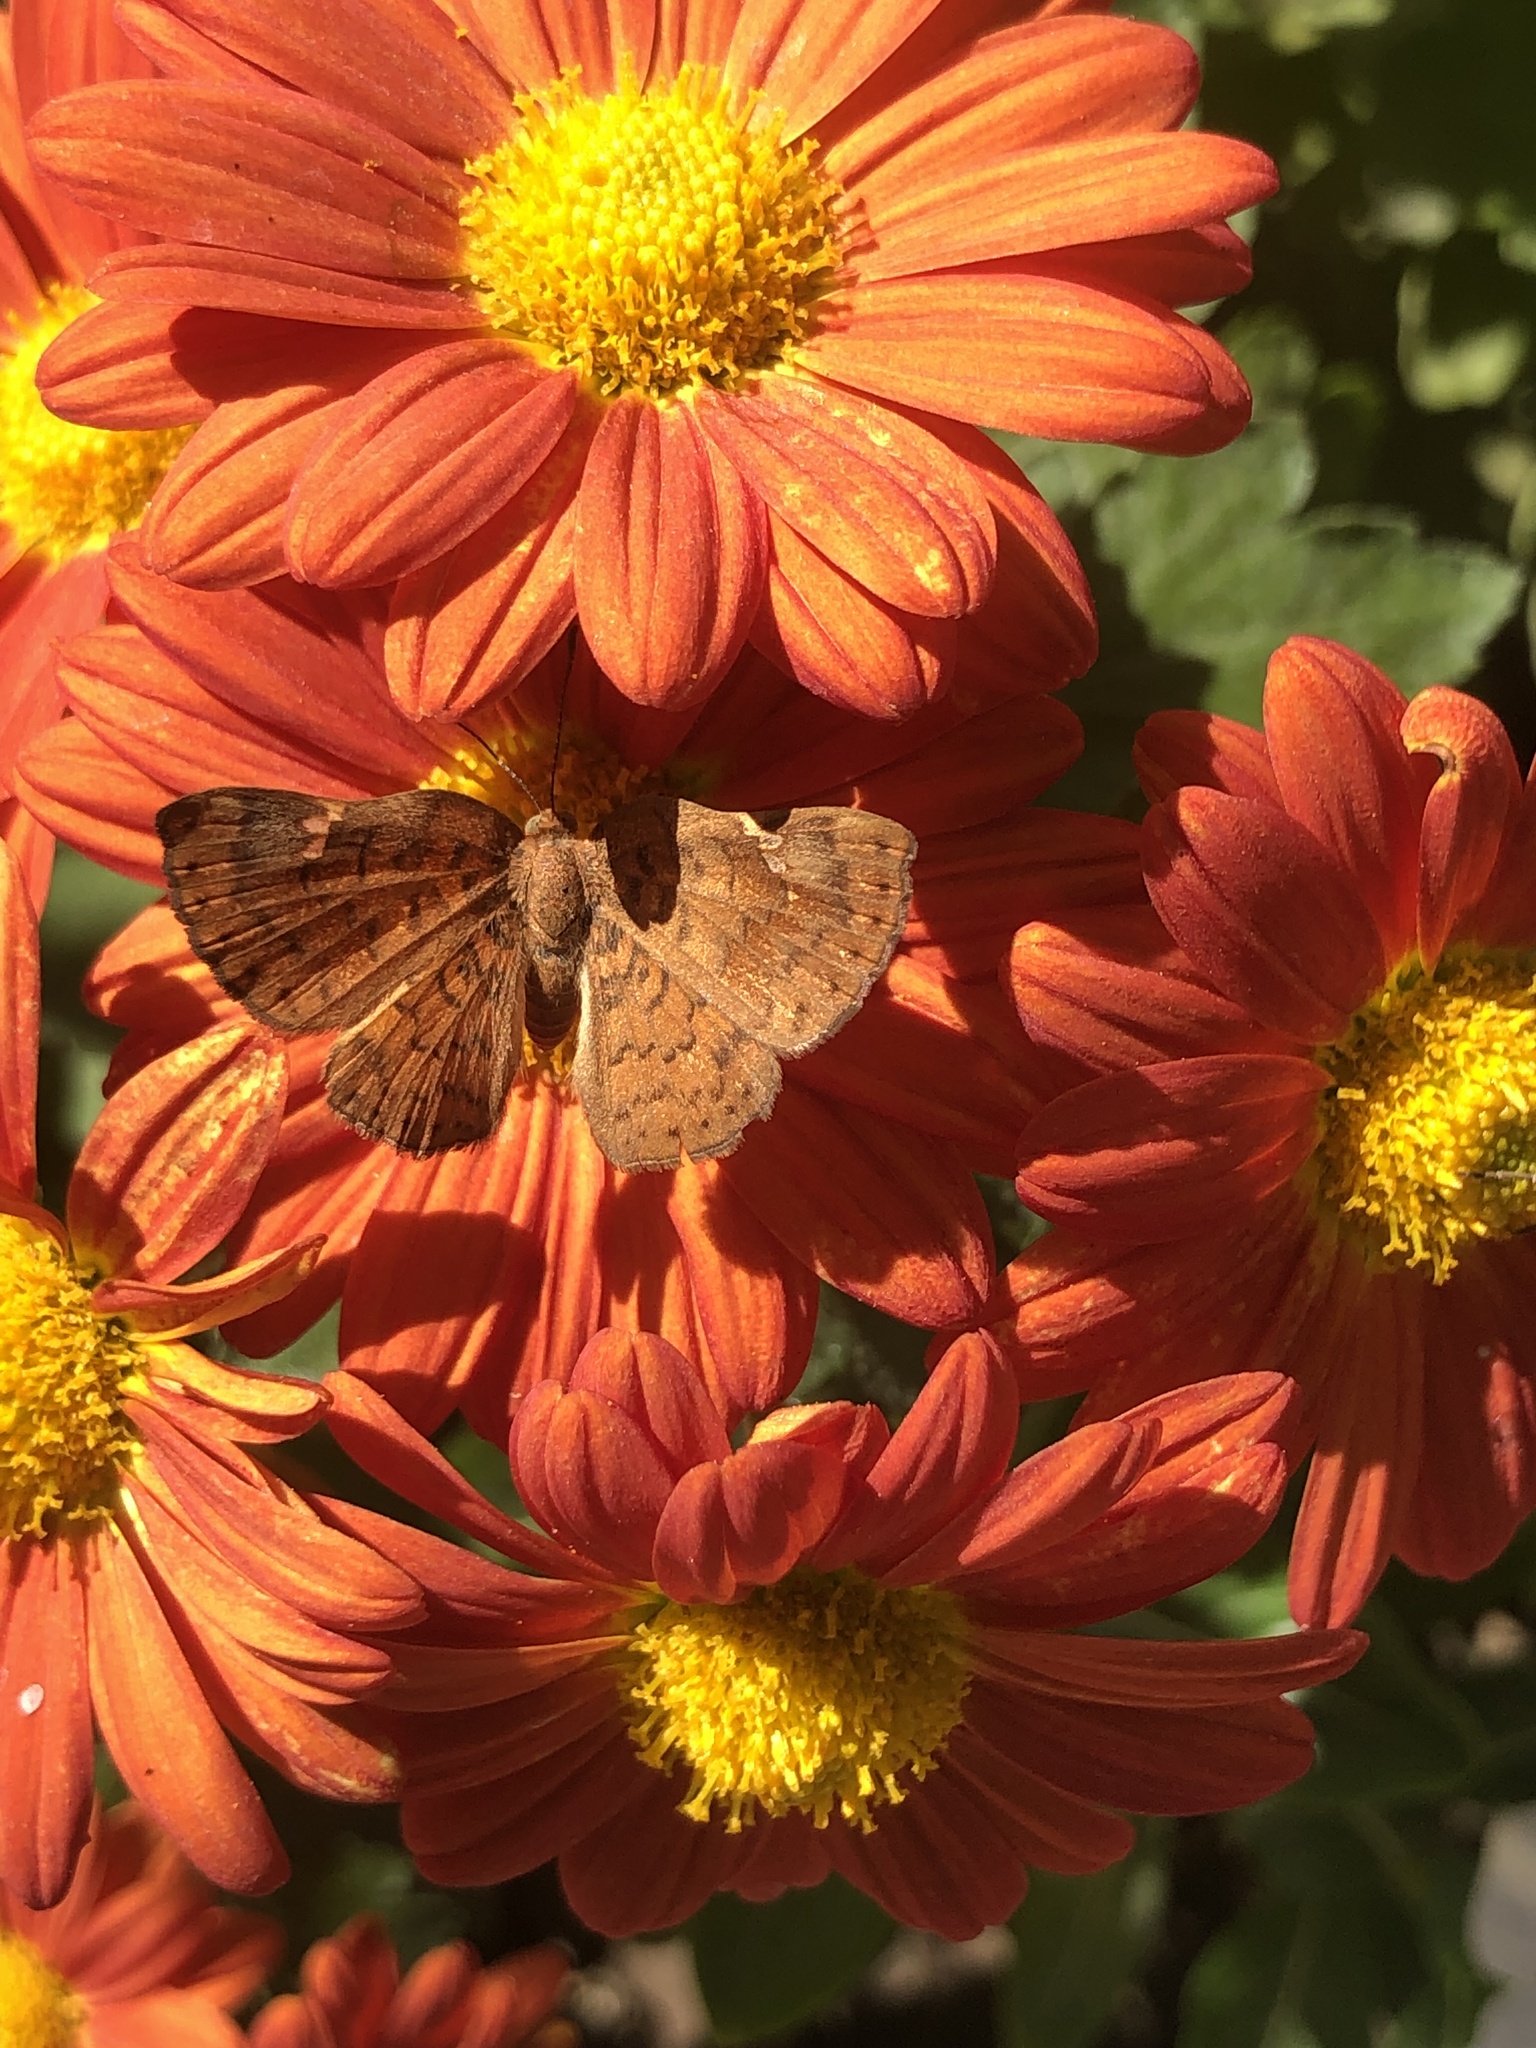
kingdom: Animalia
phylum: Arthropoda
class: Insecta
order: Lepidoptera
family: Riodinidae
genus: Curvie
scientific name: Curvie emesia
